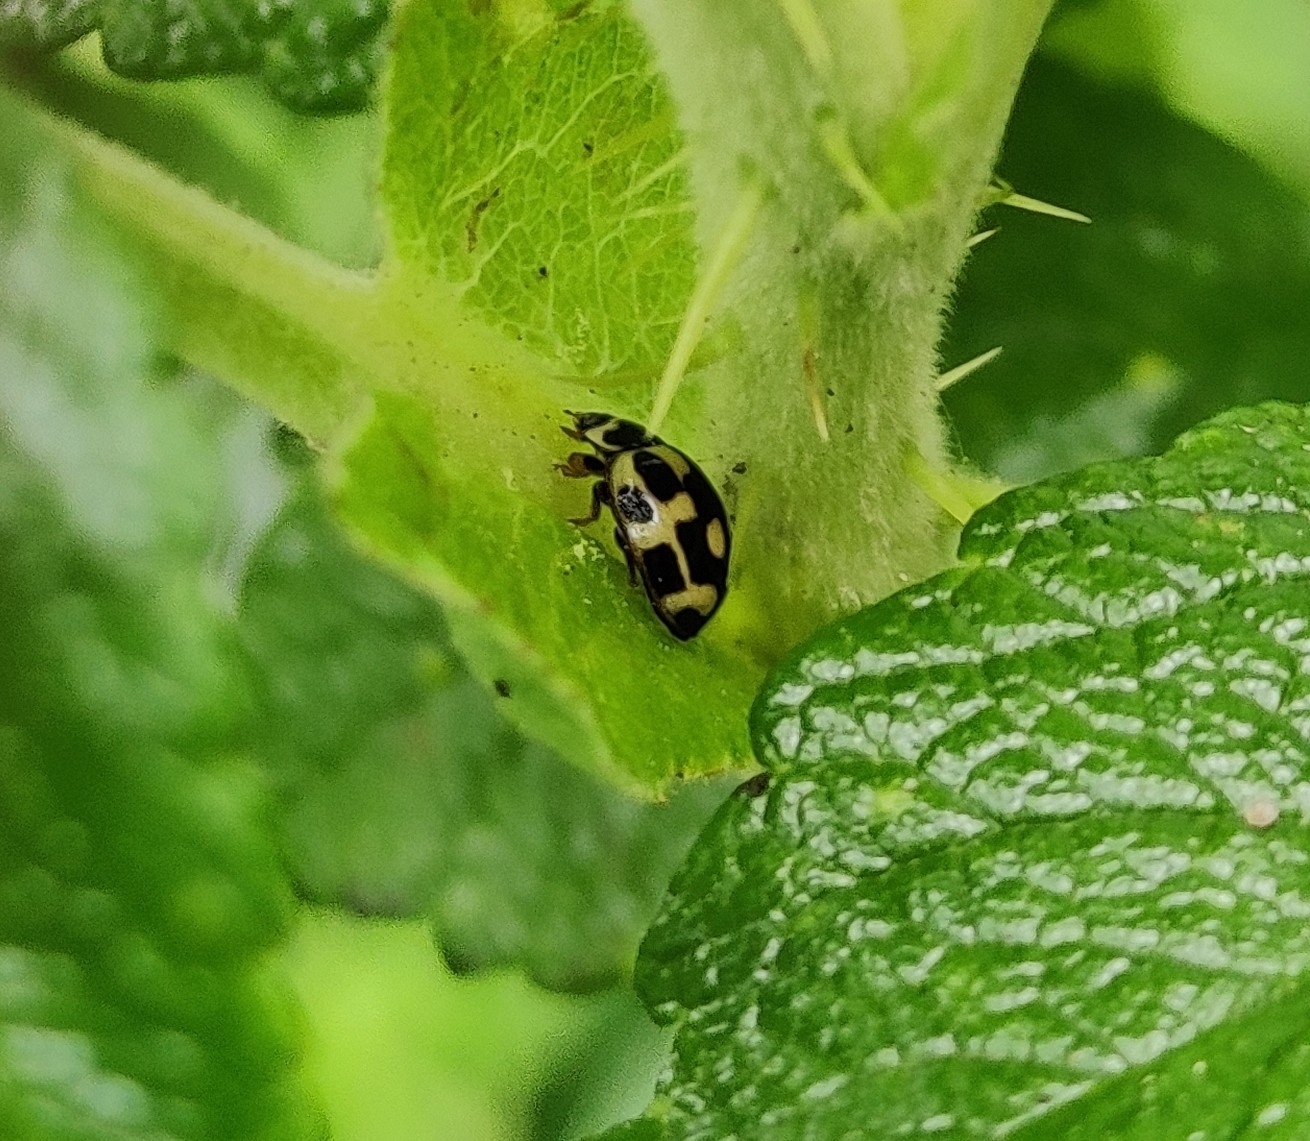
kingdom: Animalia
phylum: Arthropoda
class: Insecta
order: Coleoptera
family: Coccinellidae
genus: Propylaea
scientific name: Propylaea quatuordecimpunctata
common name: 14-spotted ladybird beetle
